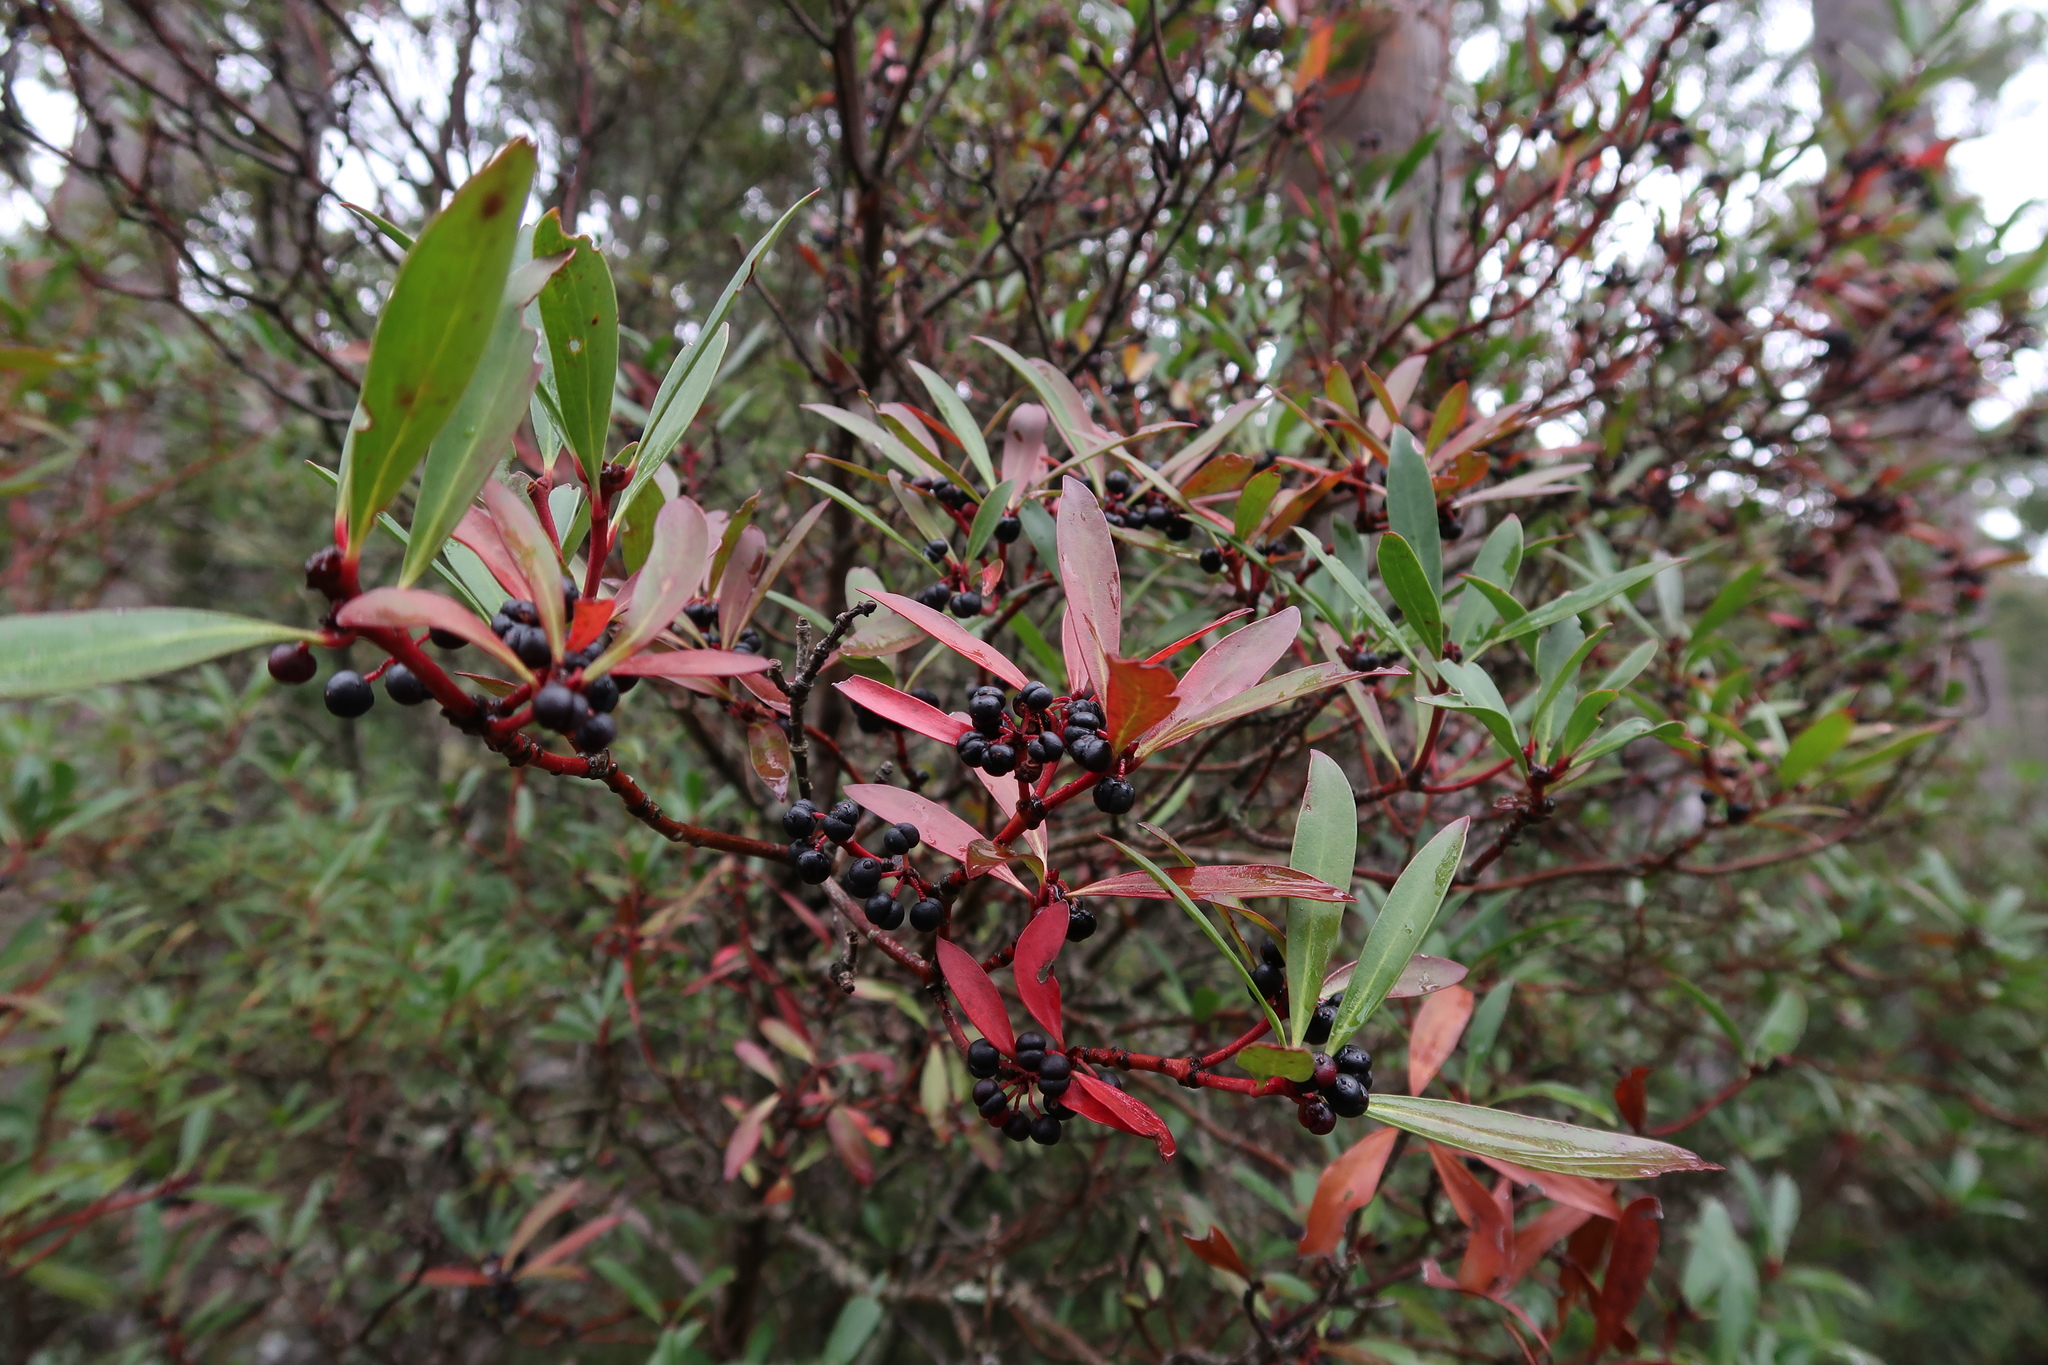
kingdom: Plantae
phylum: Tracheophyta
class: Magnoliopsida
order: Canellales
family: Winteraceae
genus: Drimys
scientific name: Drimys aromatica
